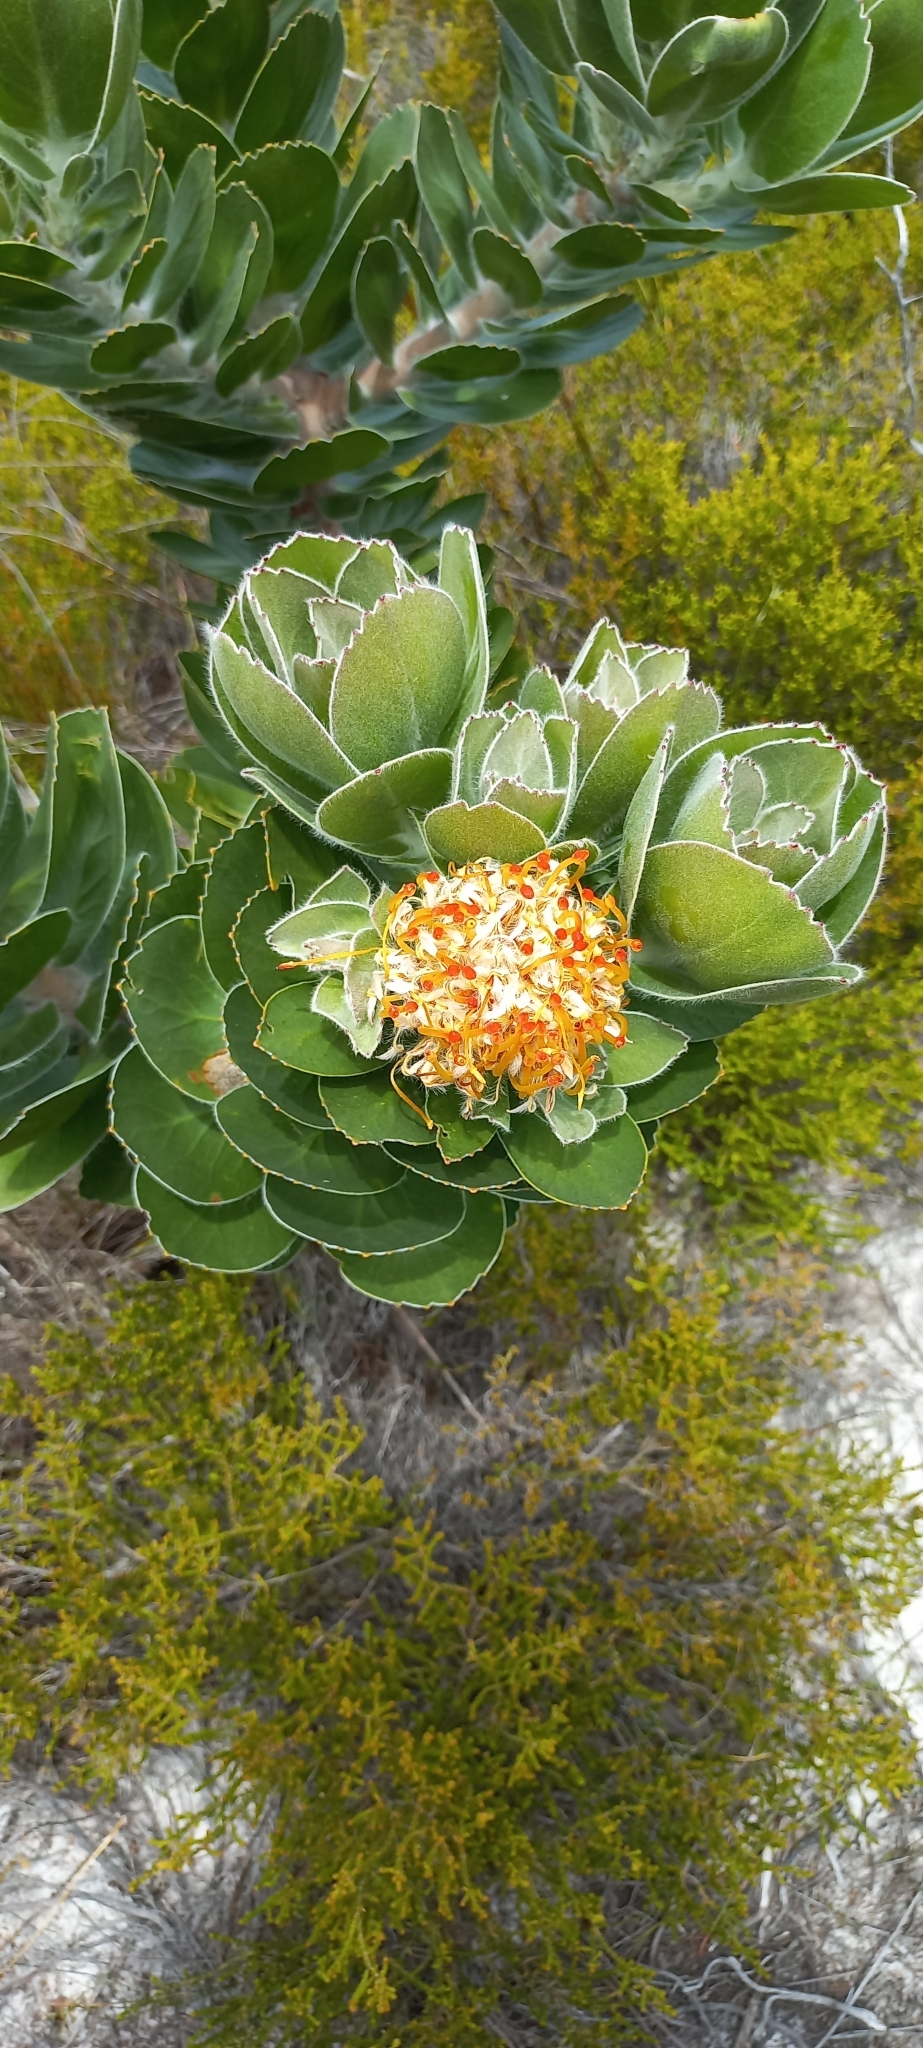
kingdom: Plantae
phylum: Tracheophyta
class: Magnoliopsida
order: Proteales
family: Proteaceae
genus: Leucospermum
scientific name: Leucospermum conocarpodendron
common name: Tree pincushion
